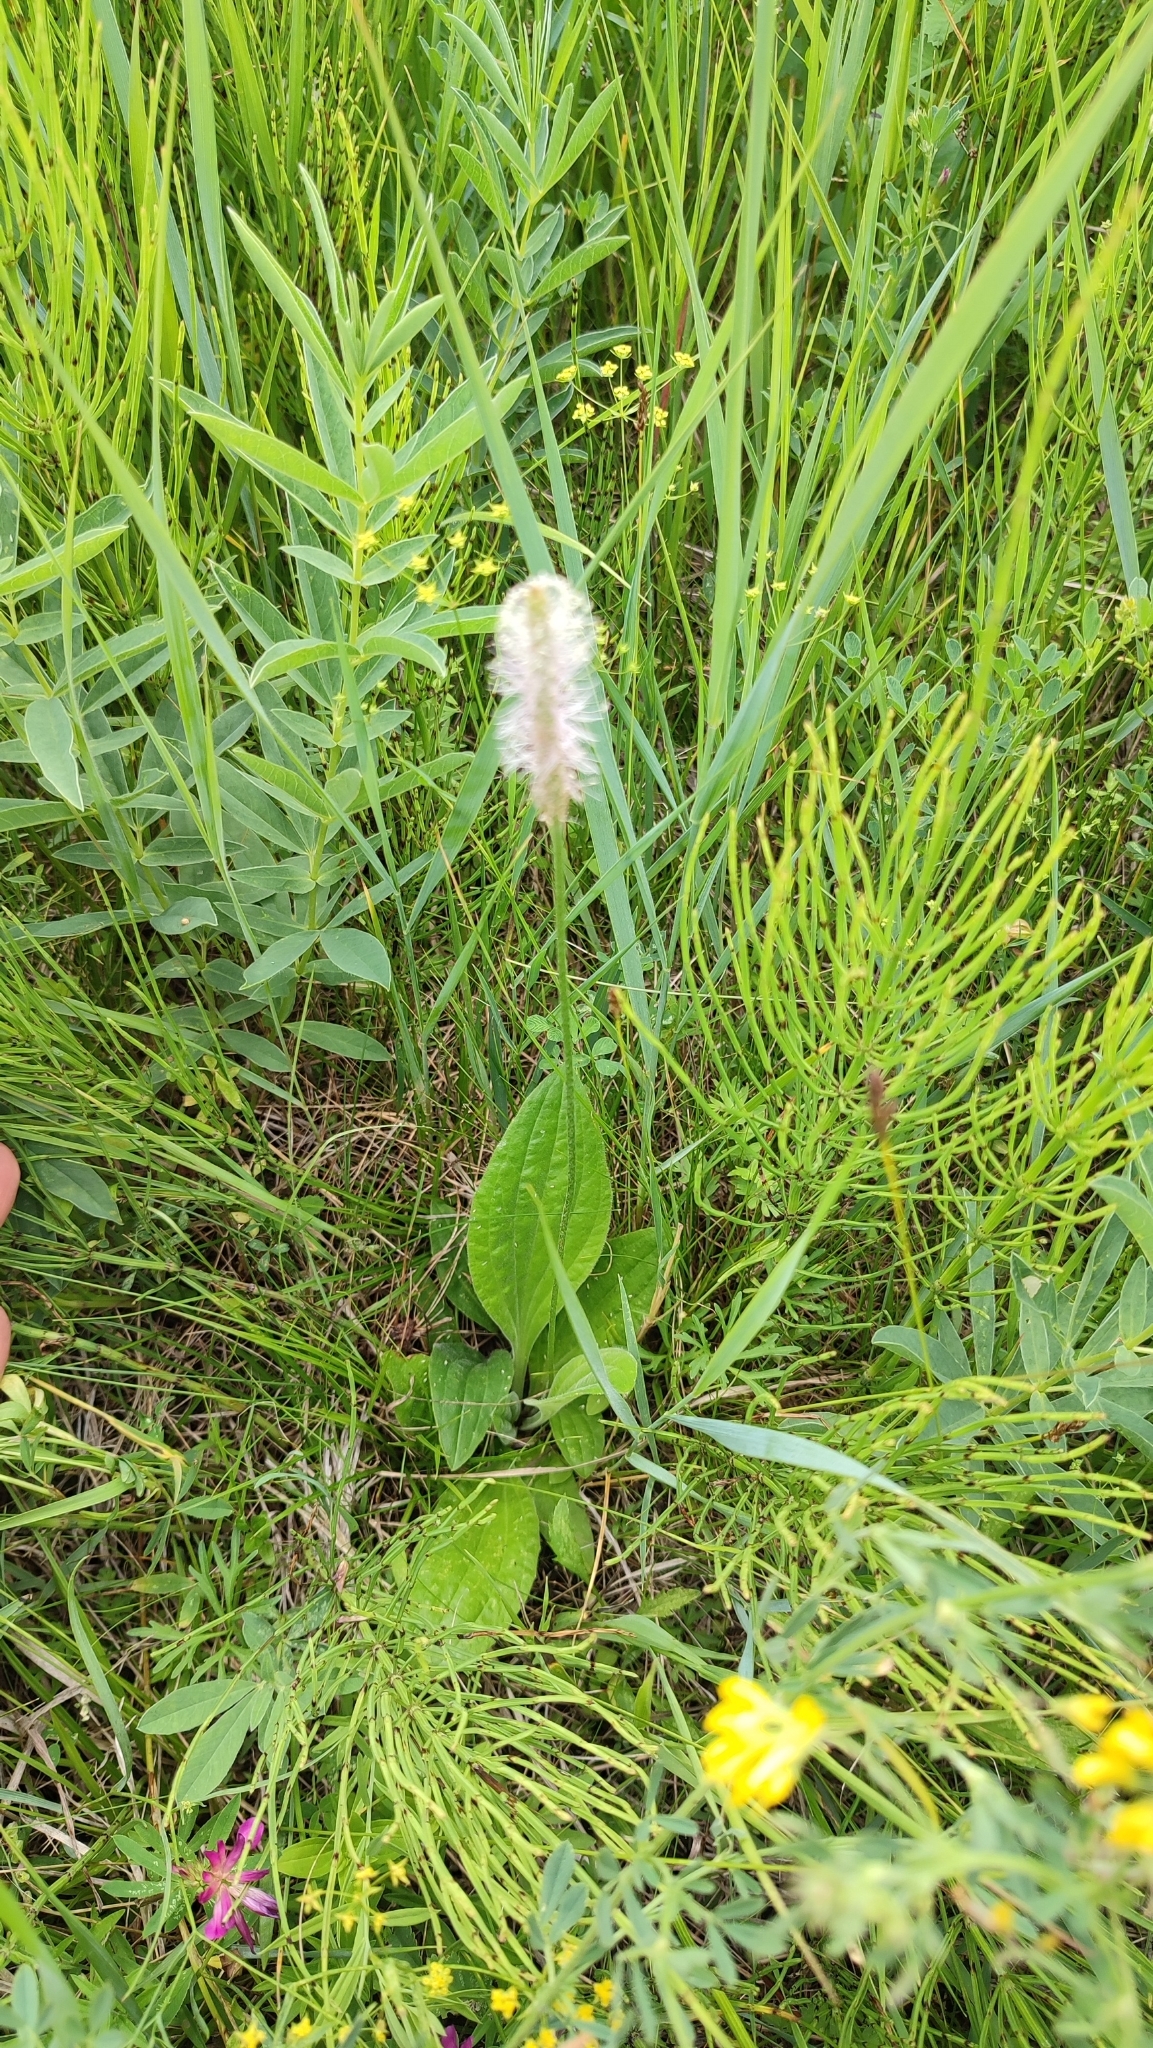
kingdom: Plantae
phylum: Tracheophyta
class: Magnoliopsida
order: Lamiales
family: Plantaginaceae
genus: Plantago
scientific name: Plantago media
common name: Hoary plantain
